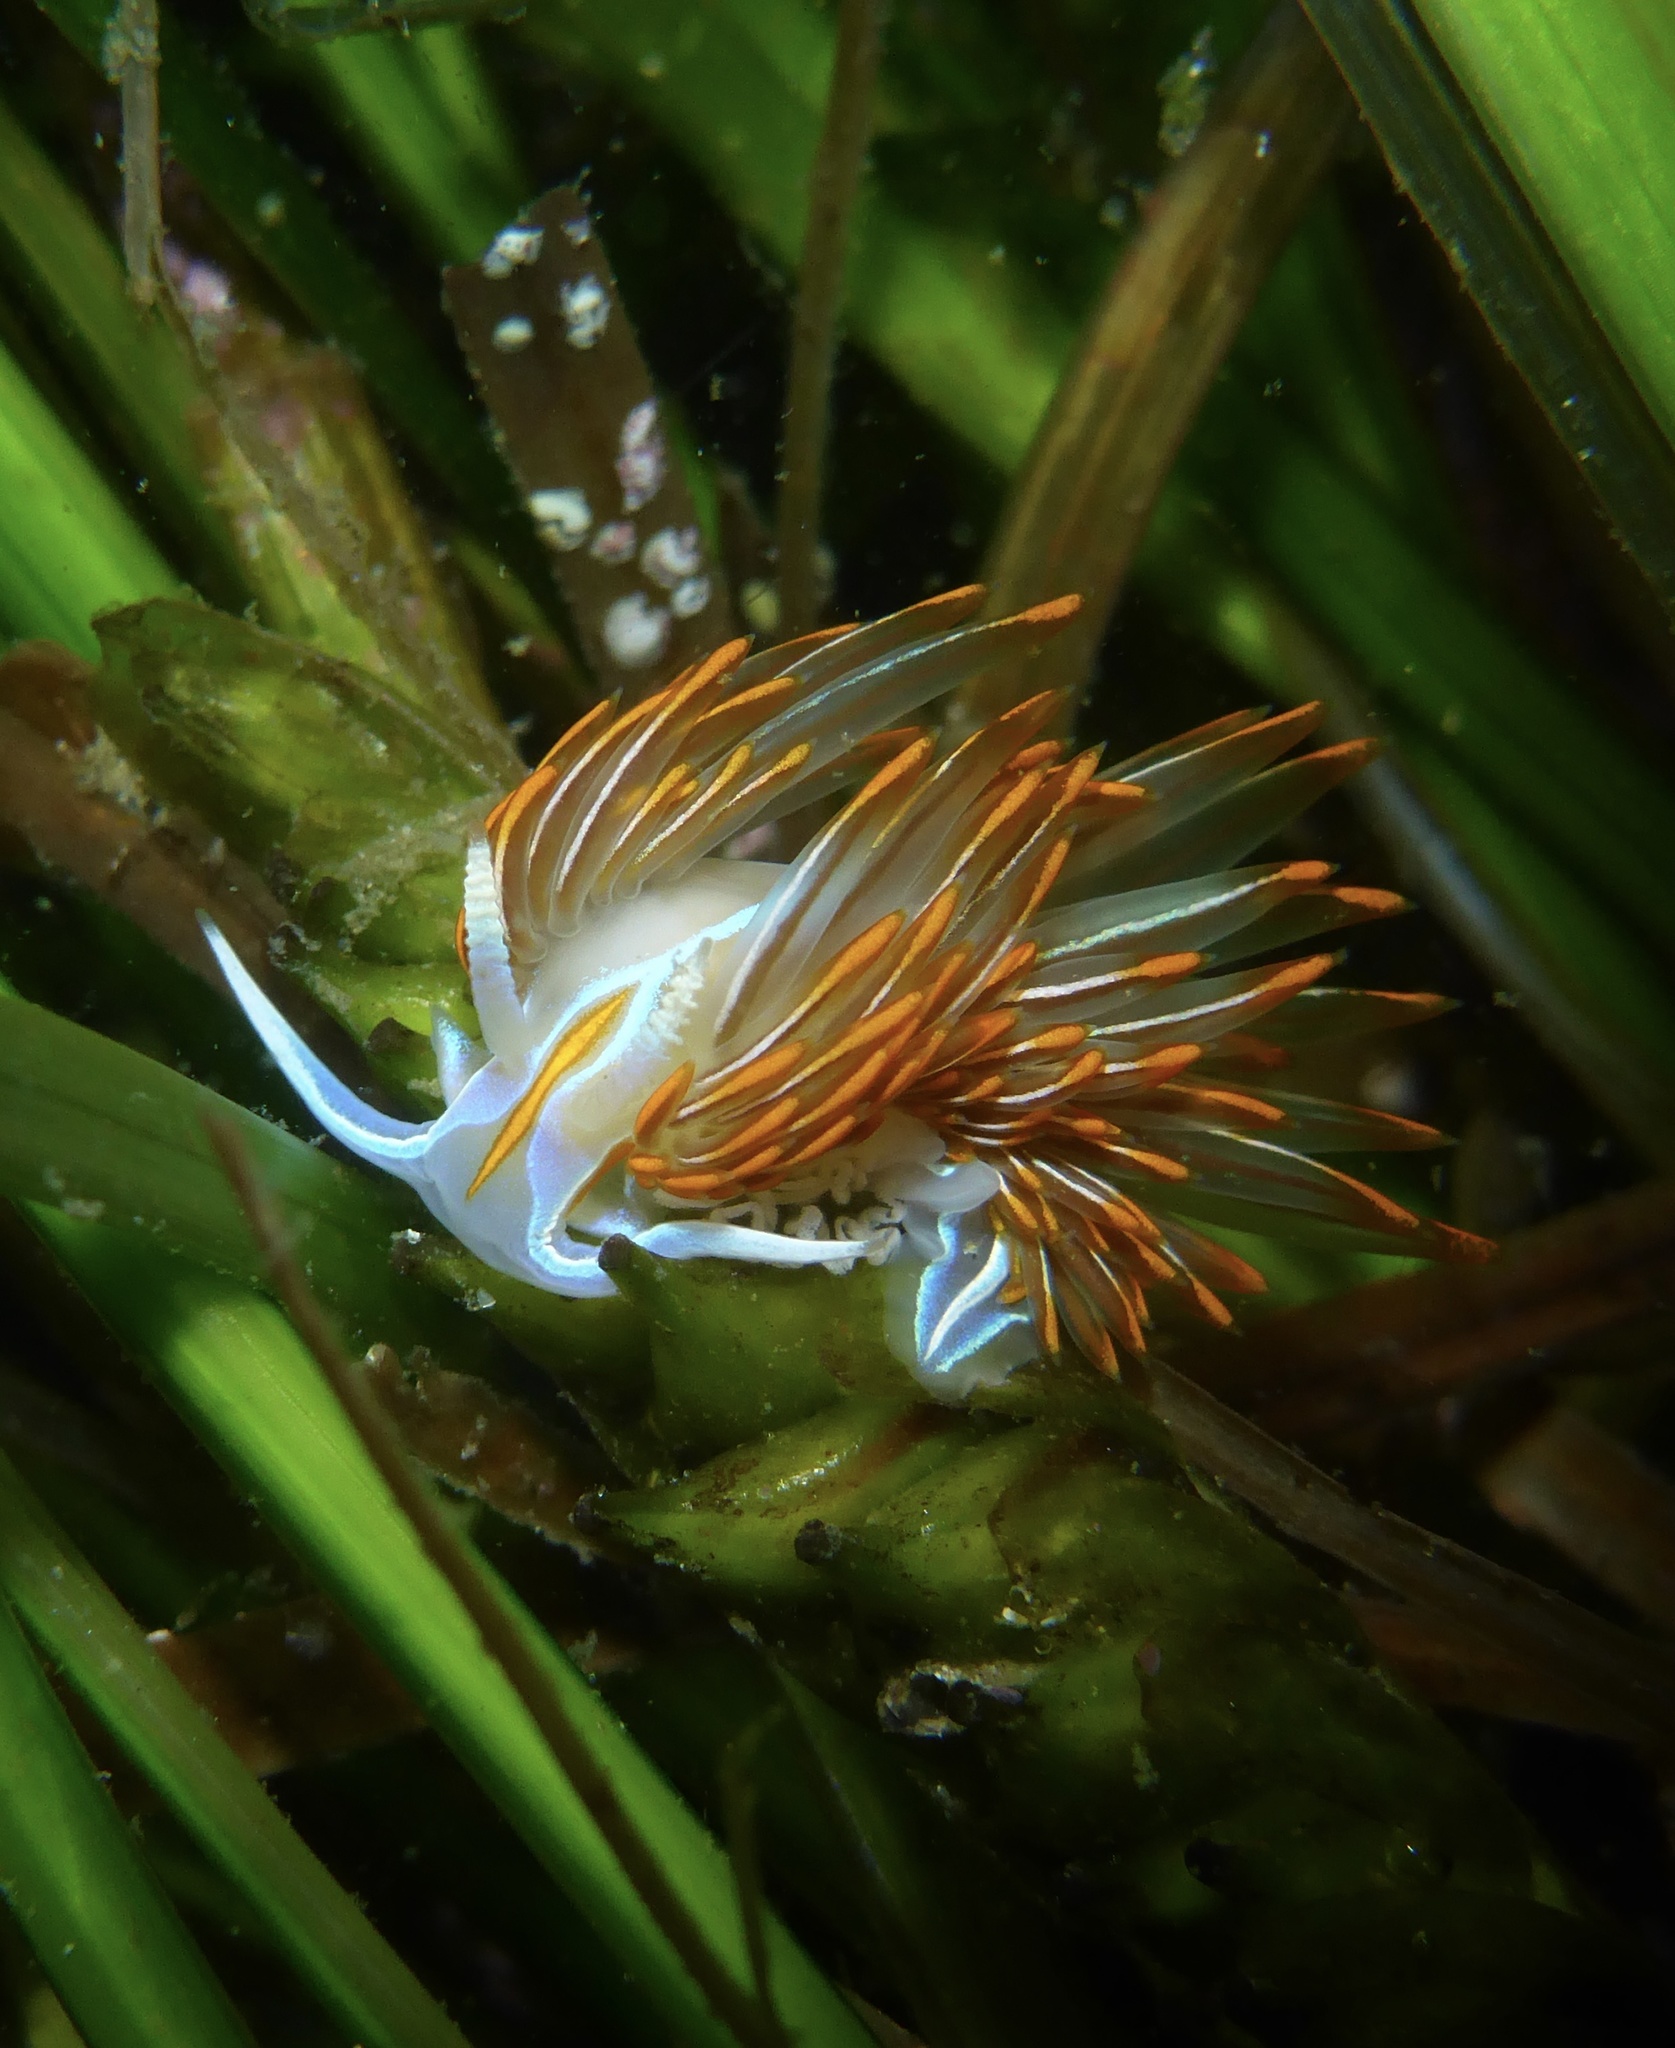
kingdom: Animalia
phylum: Mollusca
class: Gastropoda
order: Nudibranchia
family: Myrrhinidae
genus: Hermissenda
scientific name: Hermissenda crassicornis
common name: Hermissenda
